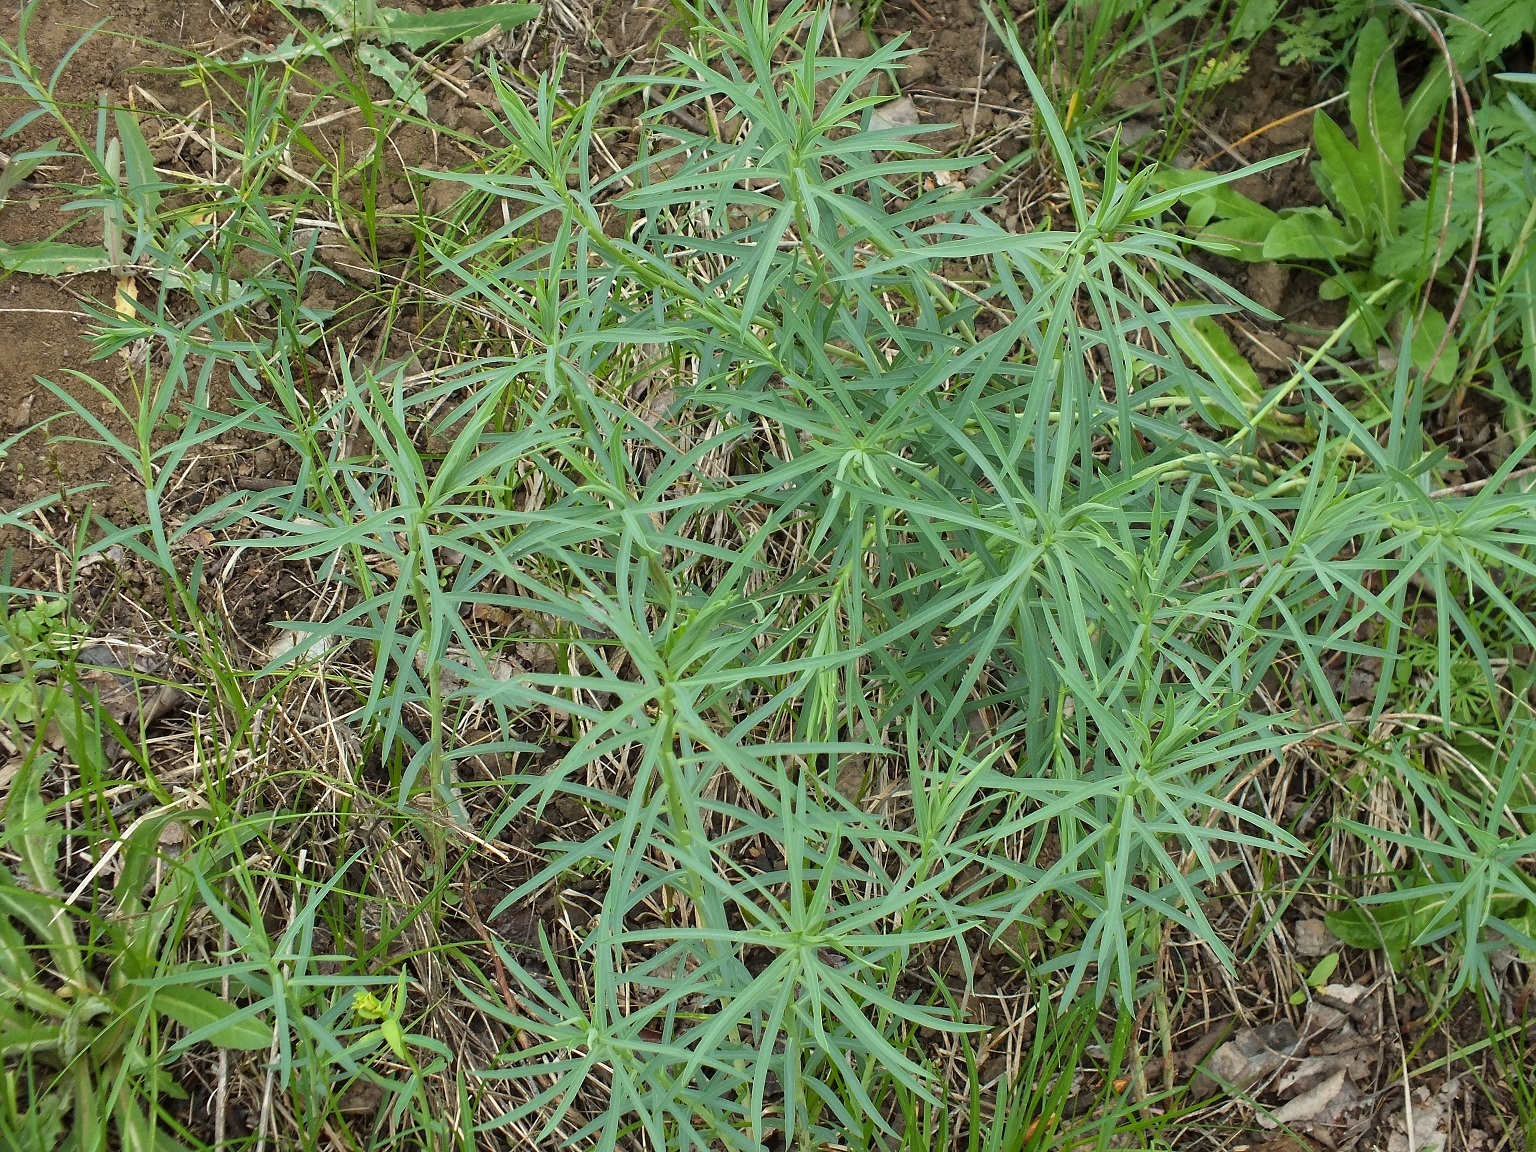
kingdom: Plantae
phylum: Tracheophyta
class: Magnoliopsida
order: Malpighiales
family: Euphorbiaceae
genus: Euphorbia
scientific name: Euphorbia virgata
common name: Leafy spurge
